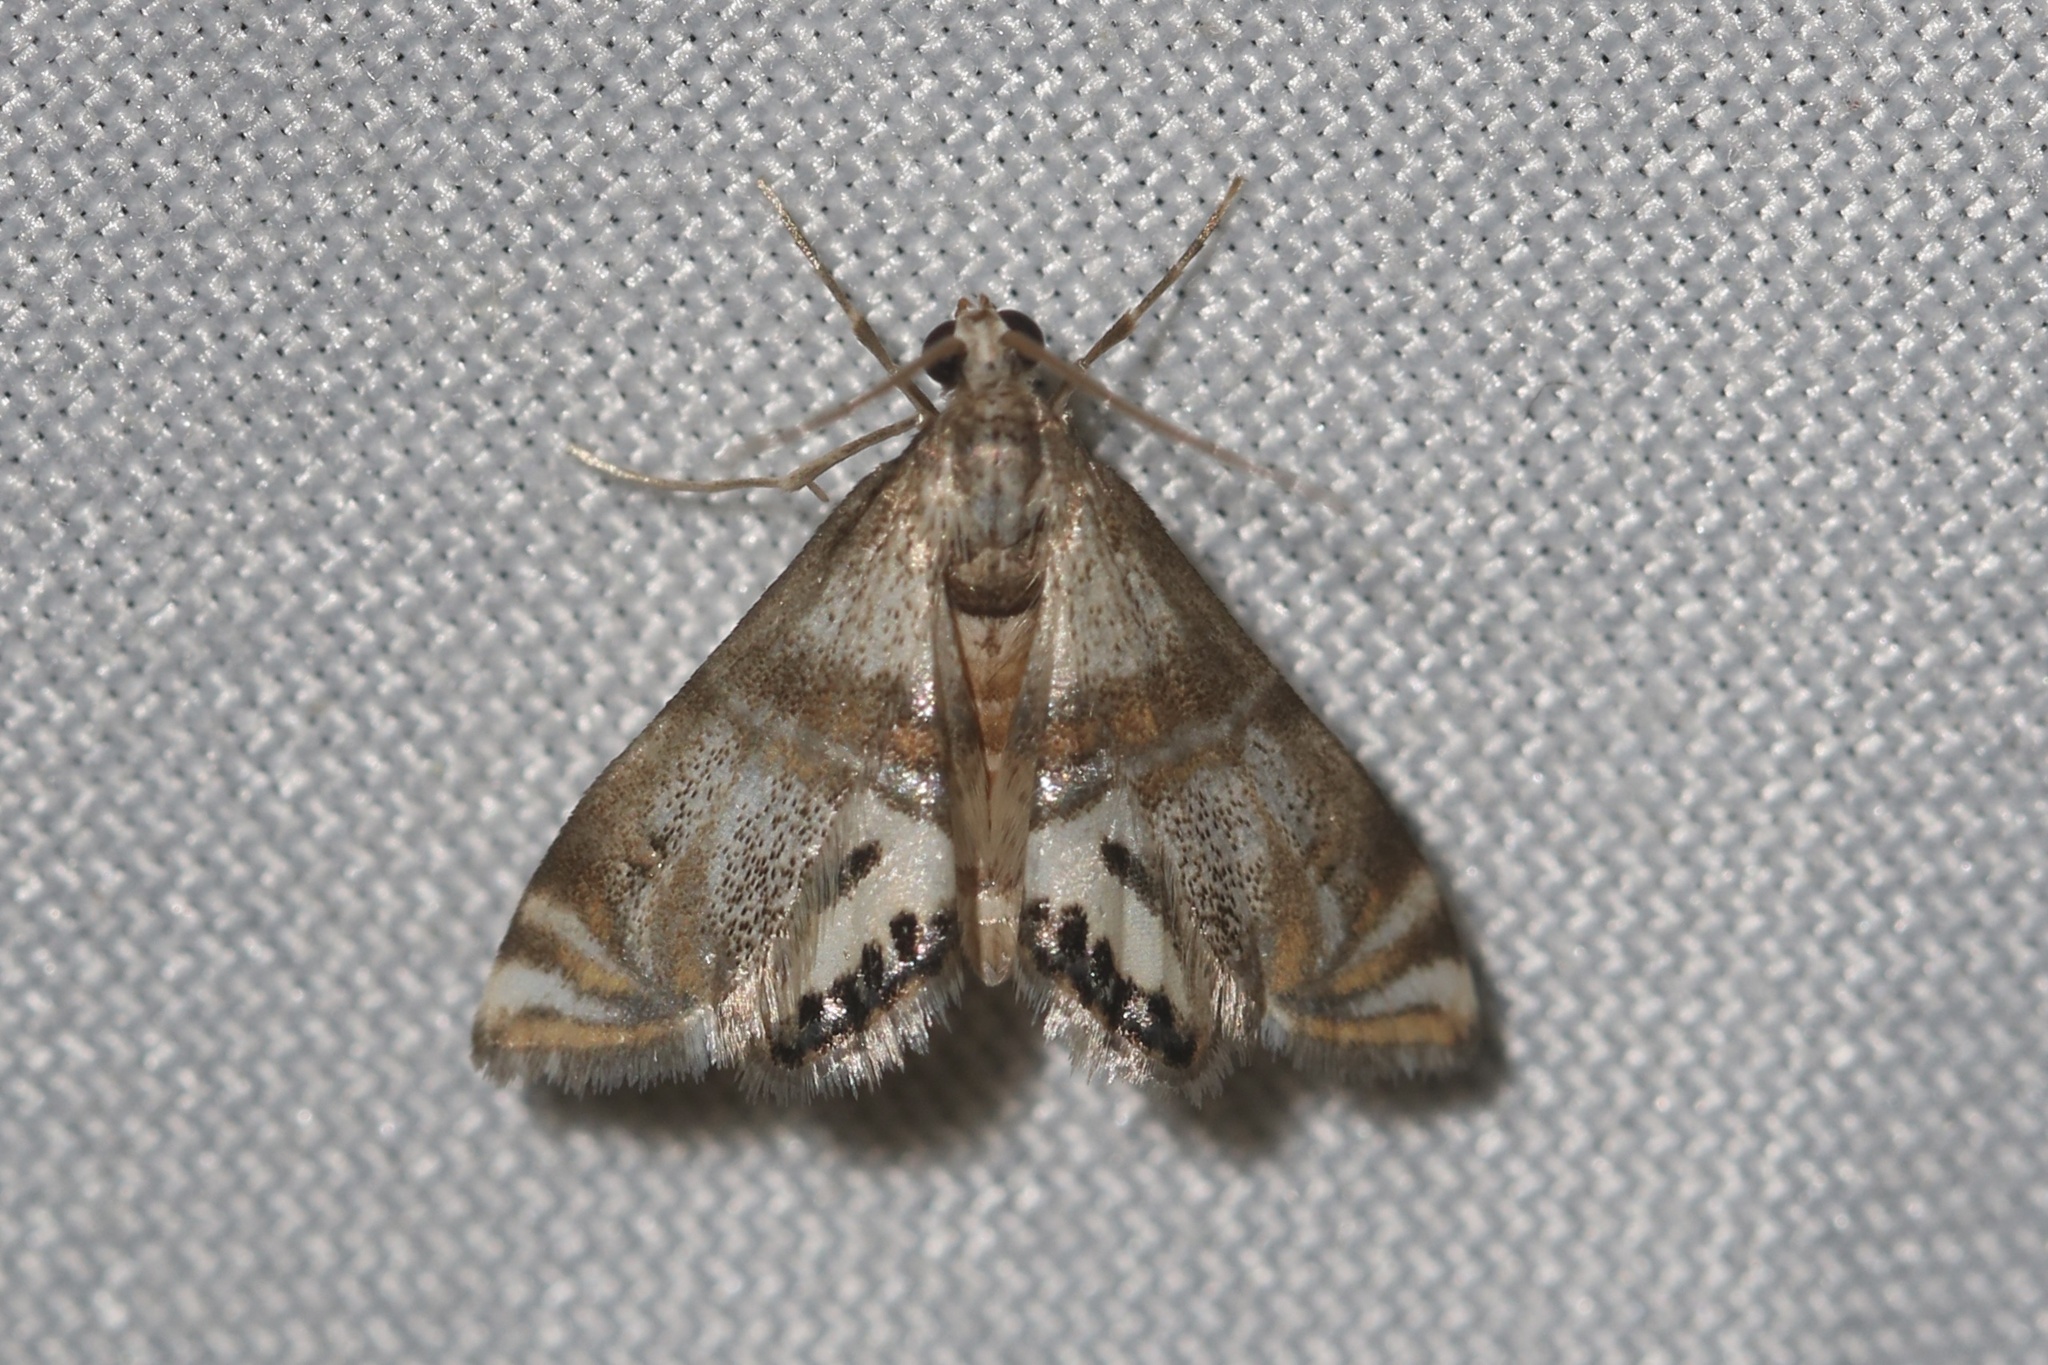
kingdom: Animalia
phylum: Arthropoda
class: Insecta
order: Lepidoptera
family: Crambidae
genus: Petrophila
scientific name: Petrophila bifascialis
